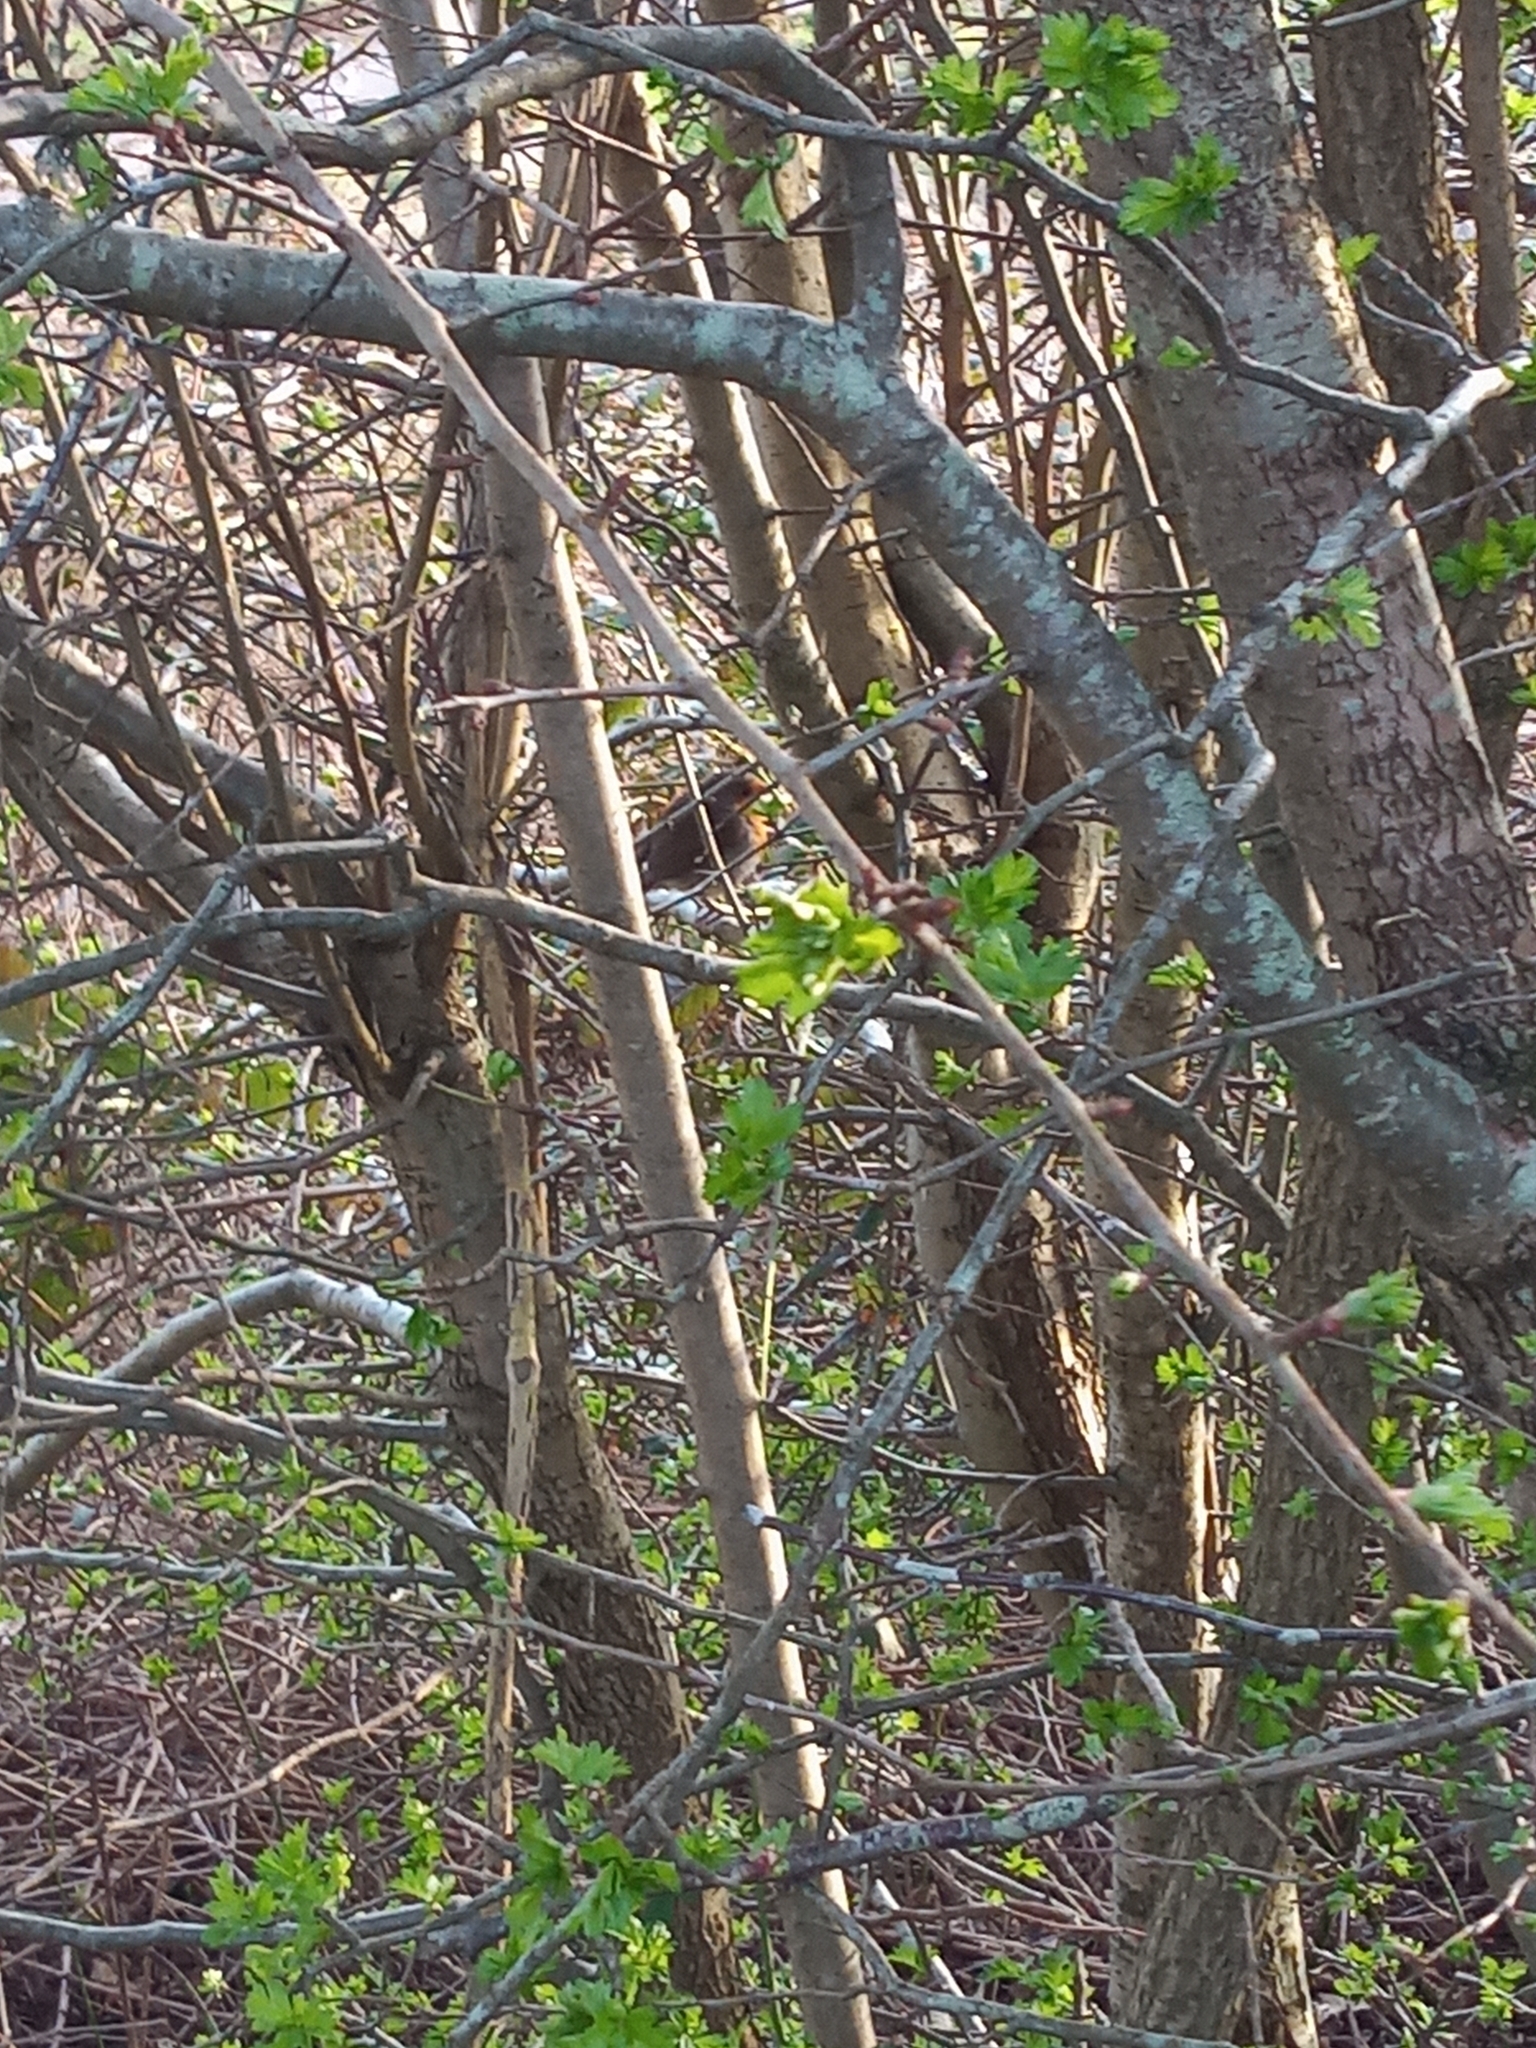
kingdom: Animalia
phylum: Chordata
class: Aves
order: Passeriformes
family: Muscicapidae
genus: Erithacus
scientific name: Erithacus rubecula
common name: European robin
